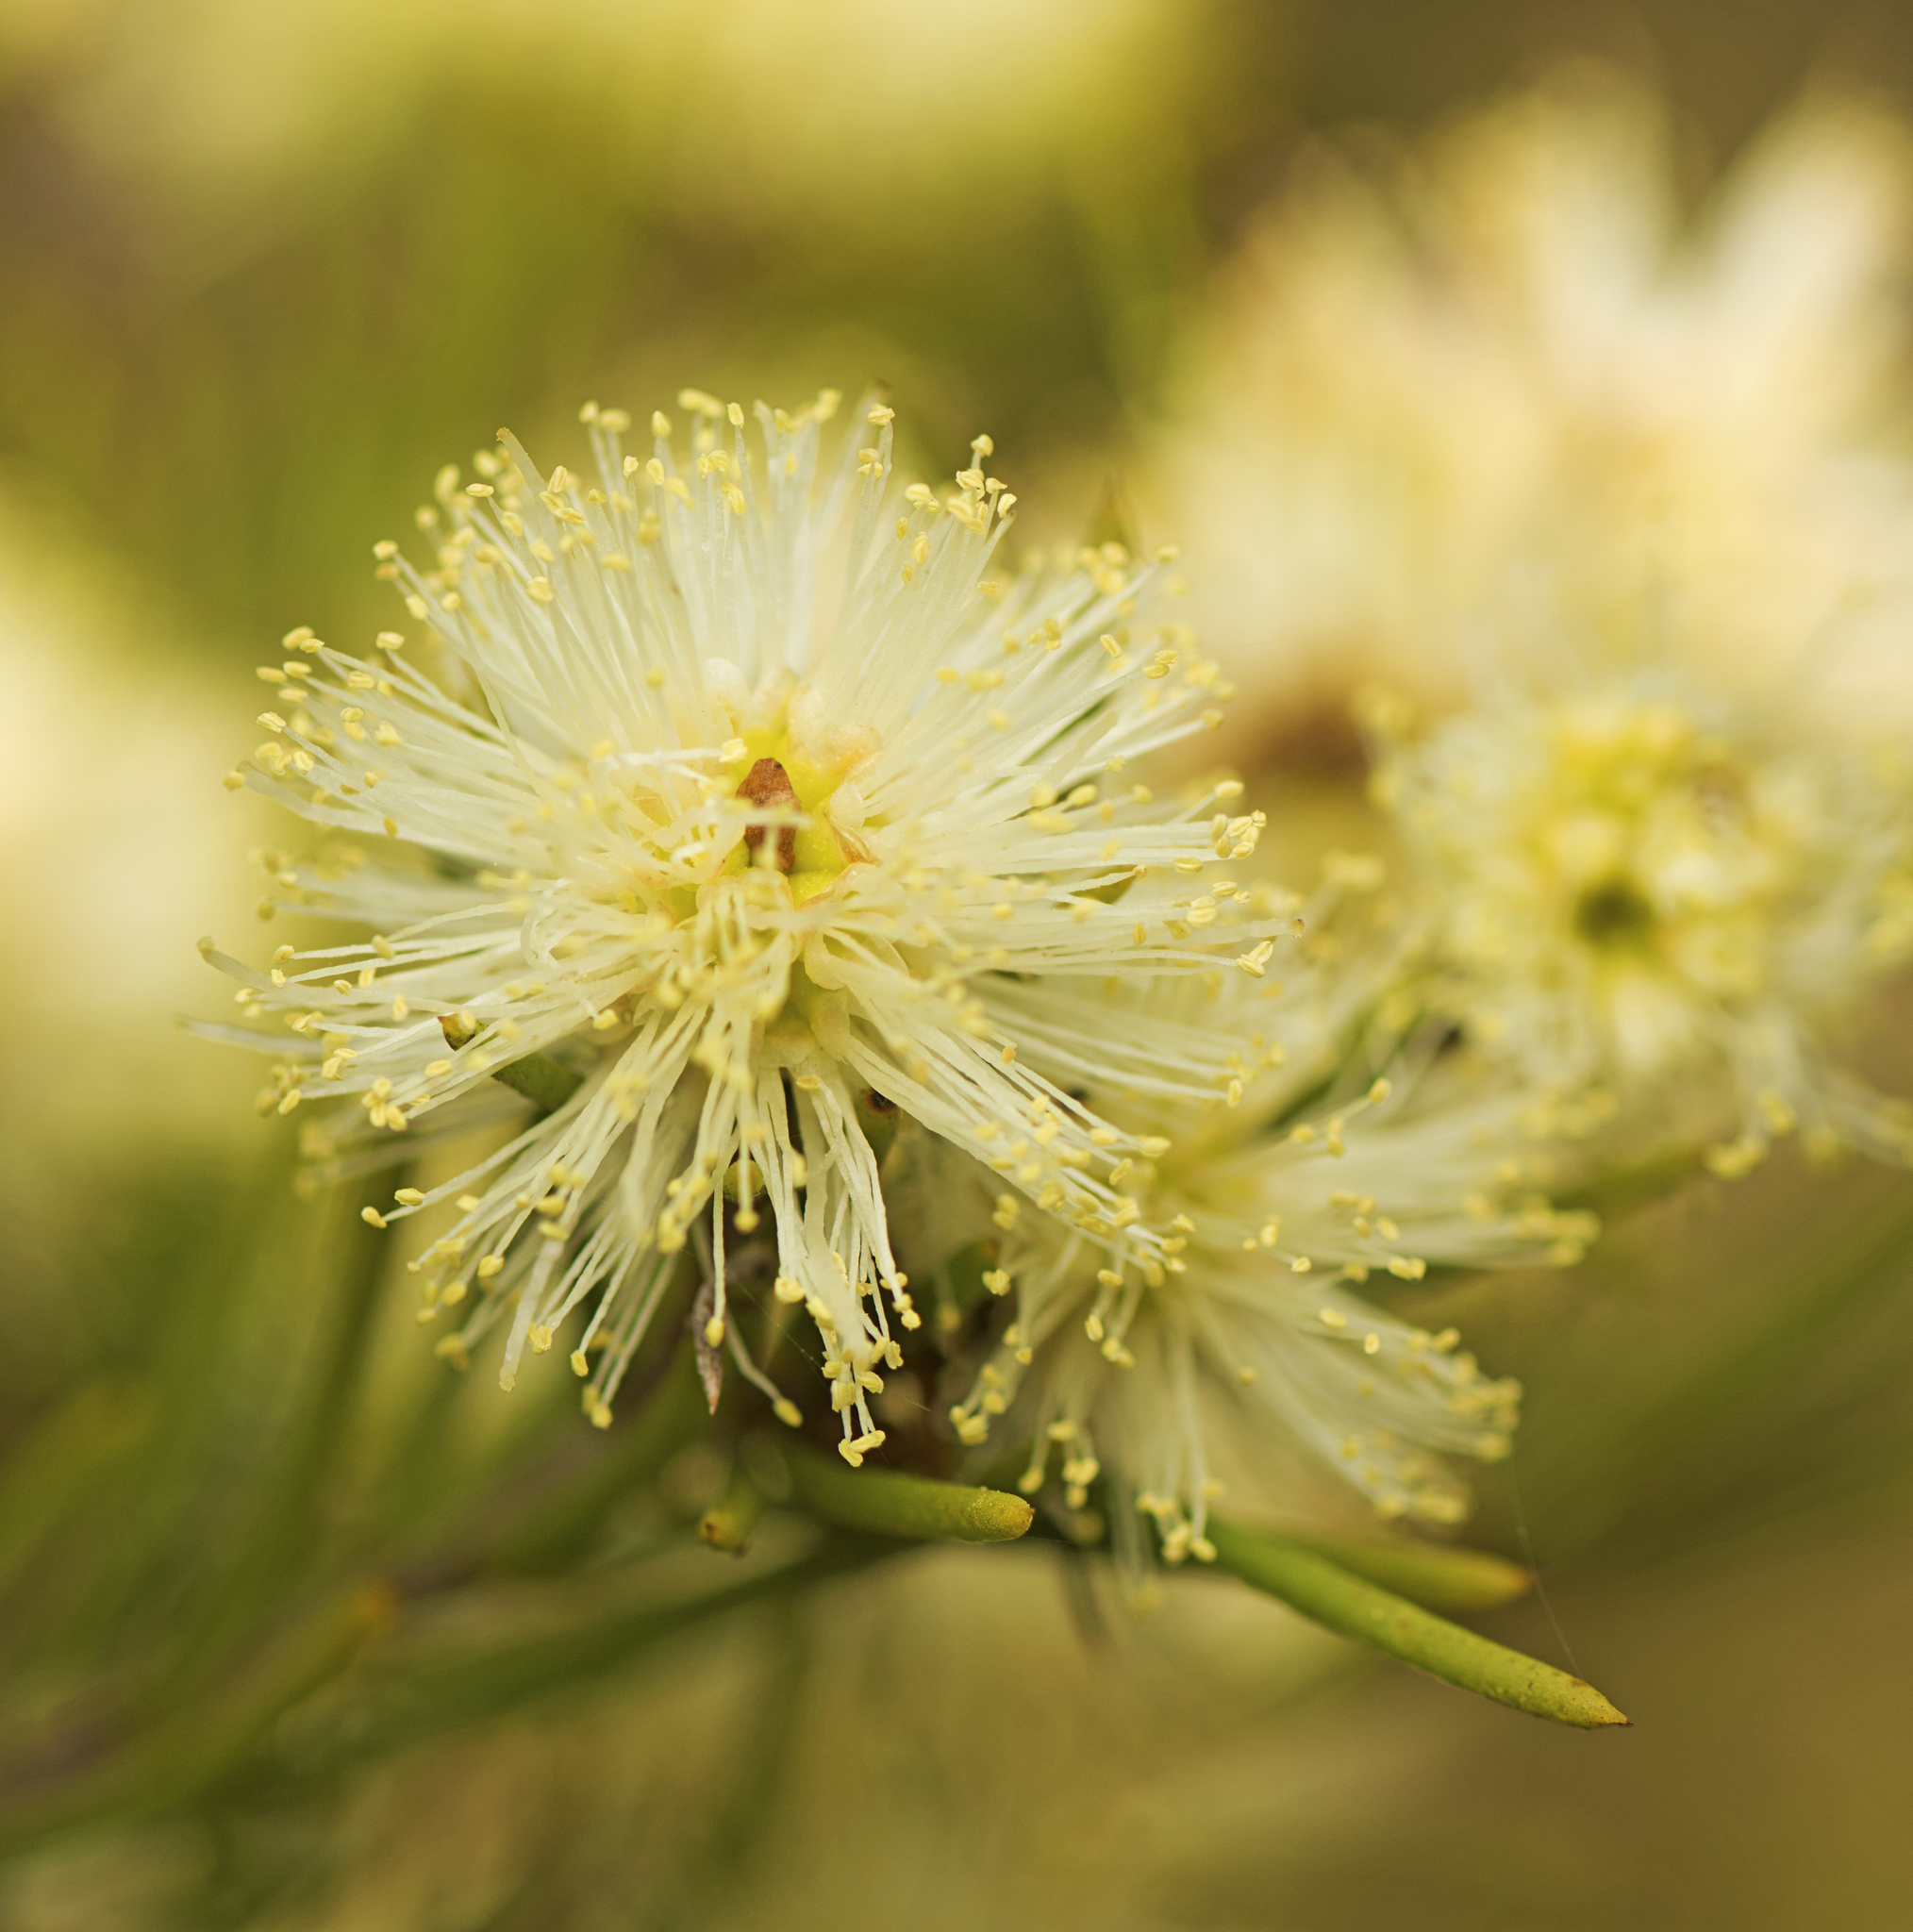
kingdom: Plantae
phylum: Tracheophyta
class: Magnoliopsida
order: Myrtales
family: Myrtaceae
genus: Melaleuca
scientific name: Melaleuca nodosa
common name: Prickly-leaf paperbark
